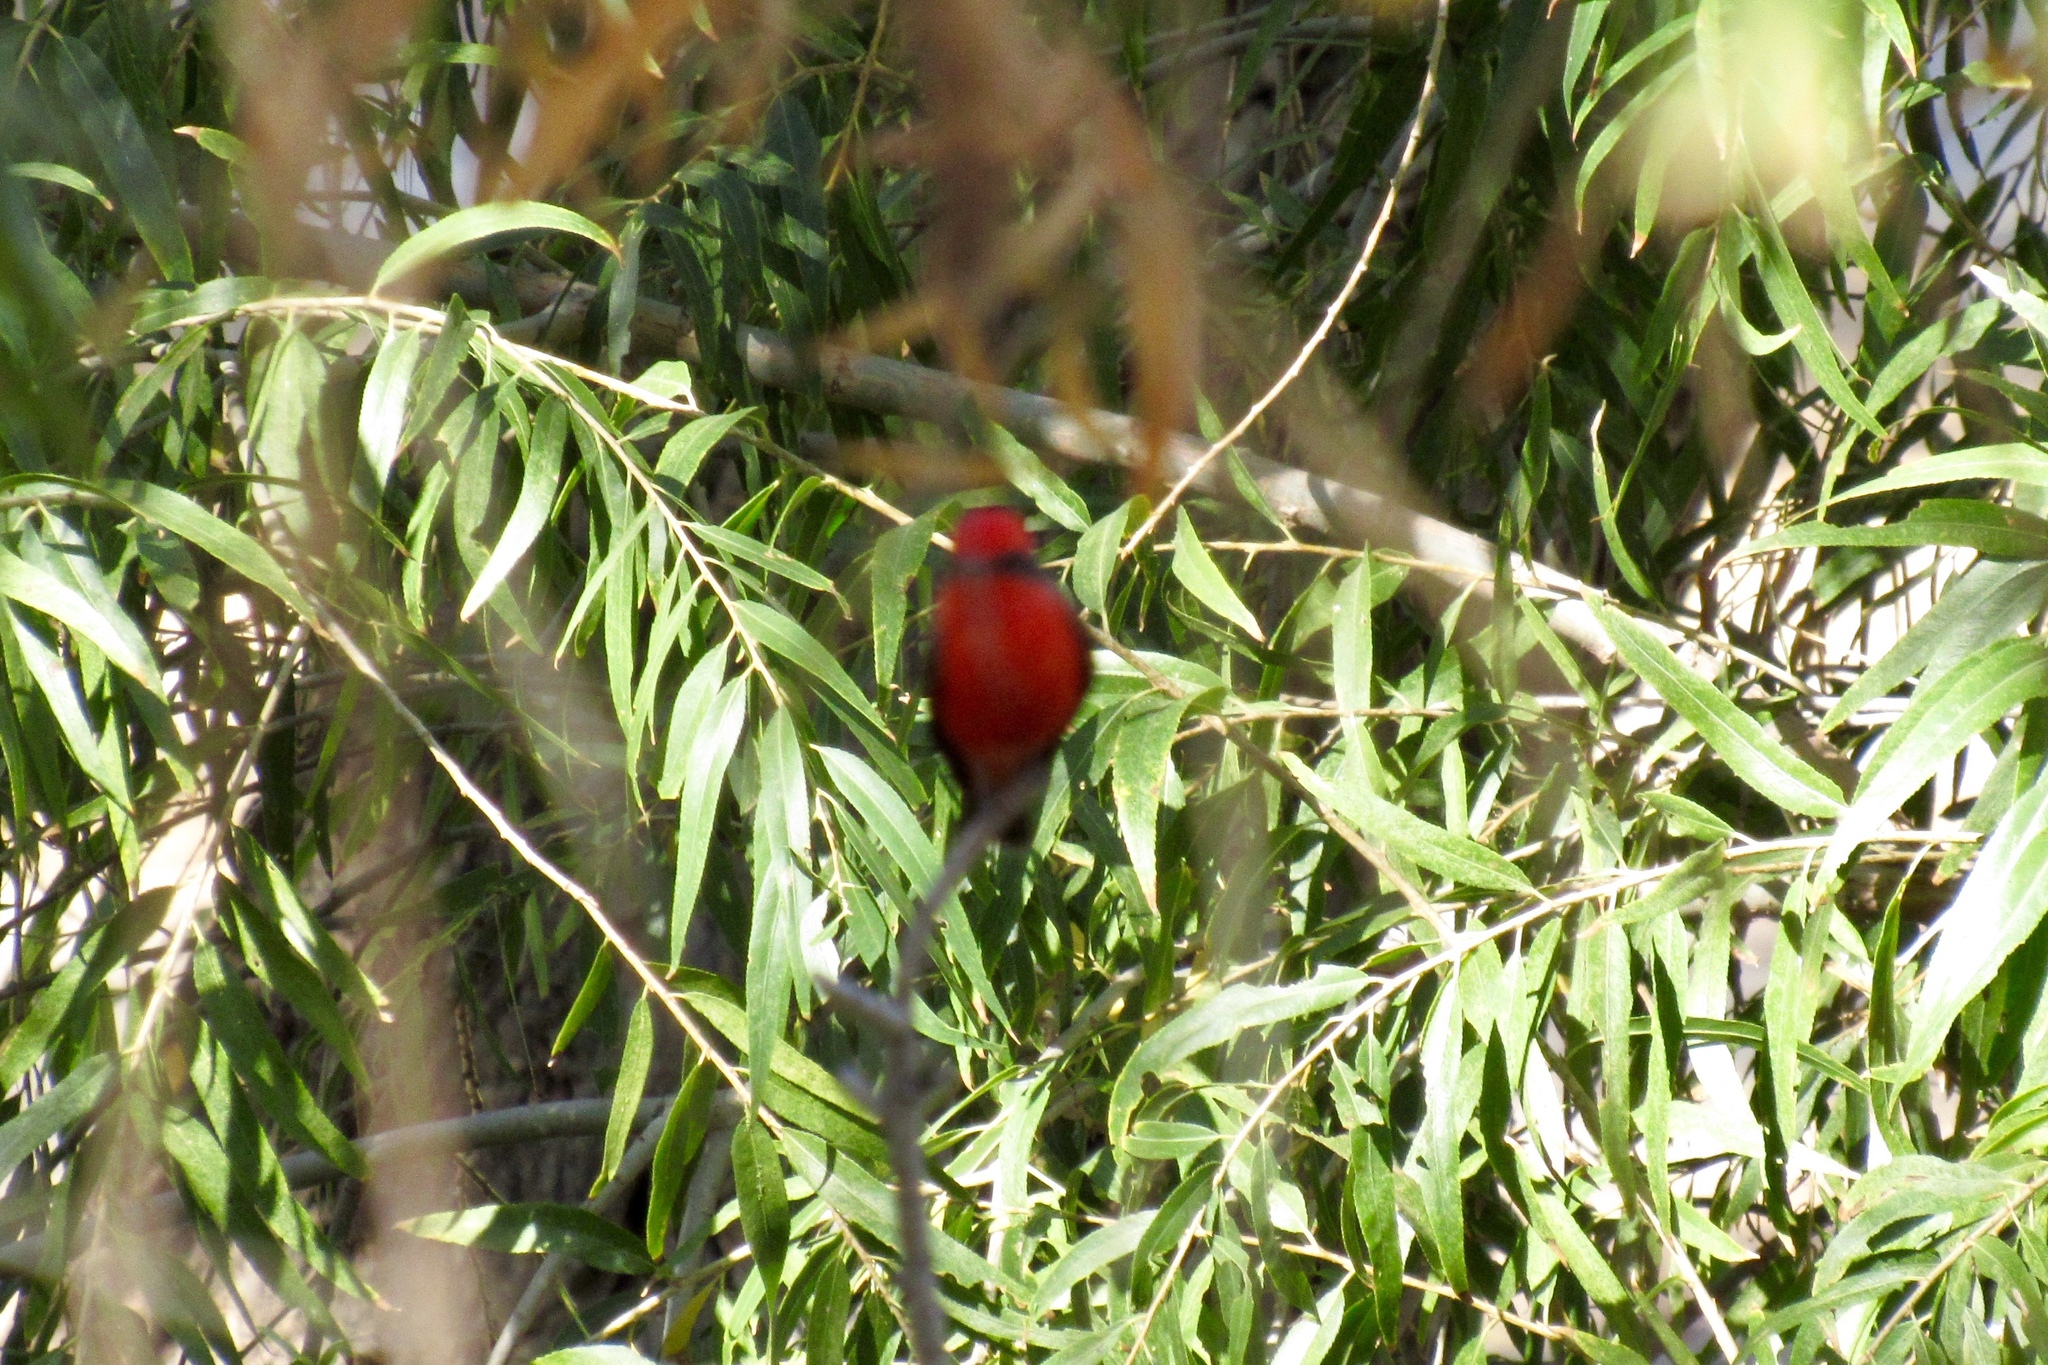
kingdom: Animalia
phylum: Chordata
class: Aves
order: Passeriformes
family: Tyrannidae
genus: Pyrocephalus
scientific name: Pyrocephalus rubinus
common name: Vermilion flycatcher
